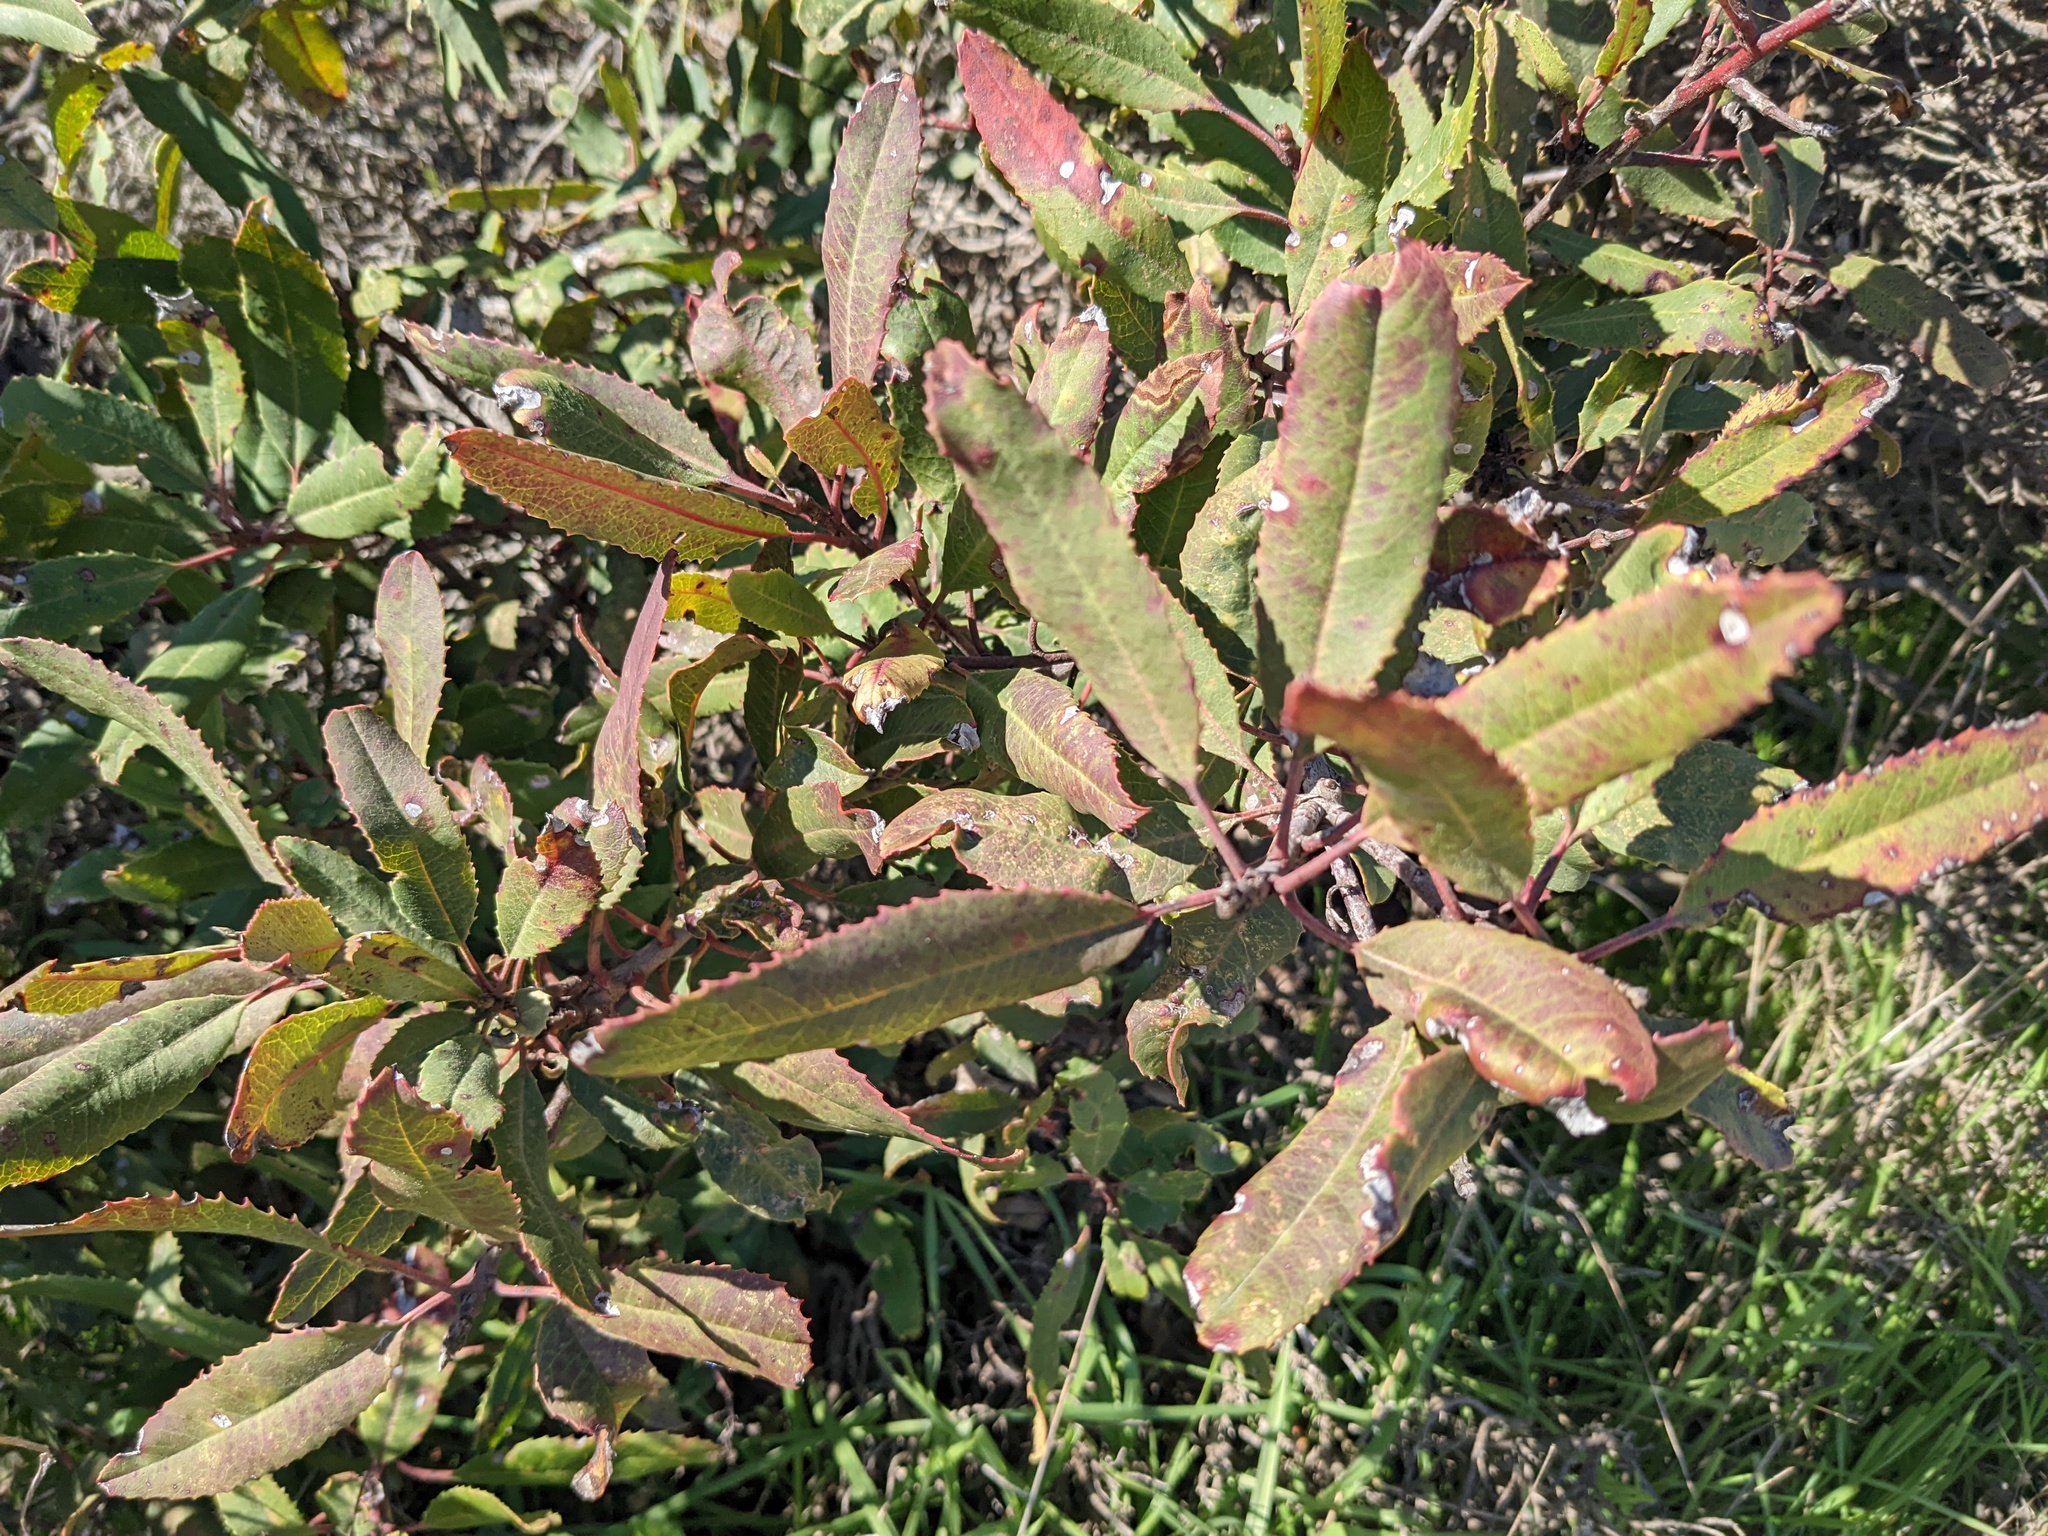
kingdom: Plantae
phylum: Tracheophyta
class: Magnoliopsida
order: Rosales
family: Rosaceae
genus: Heteromeles
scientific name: Heteromeles arbutifolia
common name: California-holly
